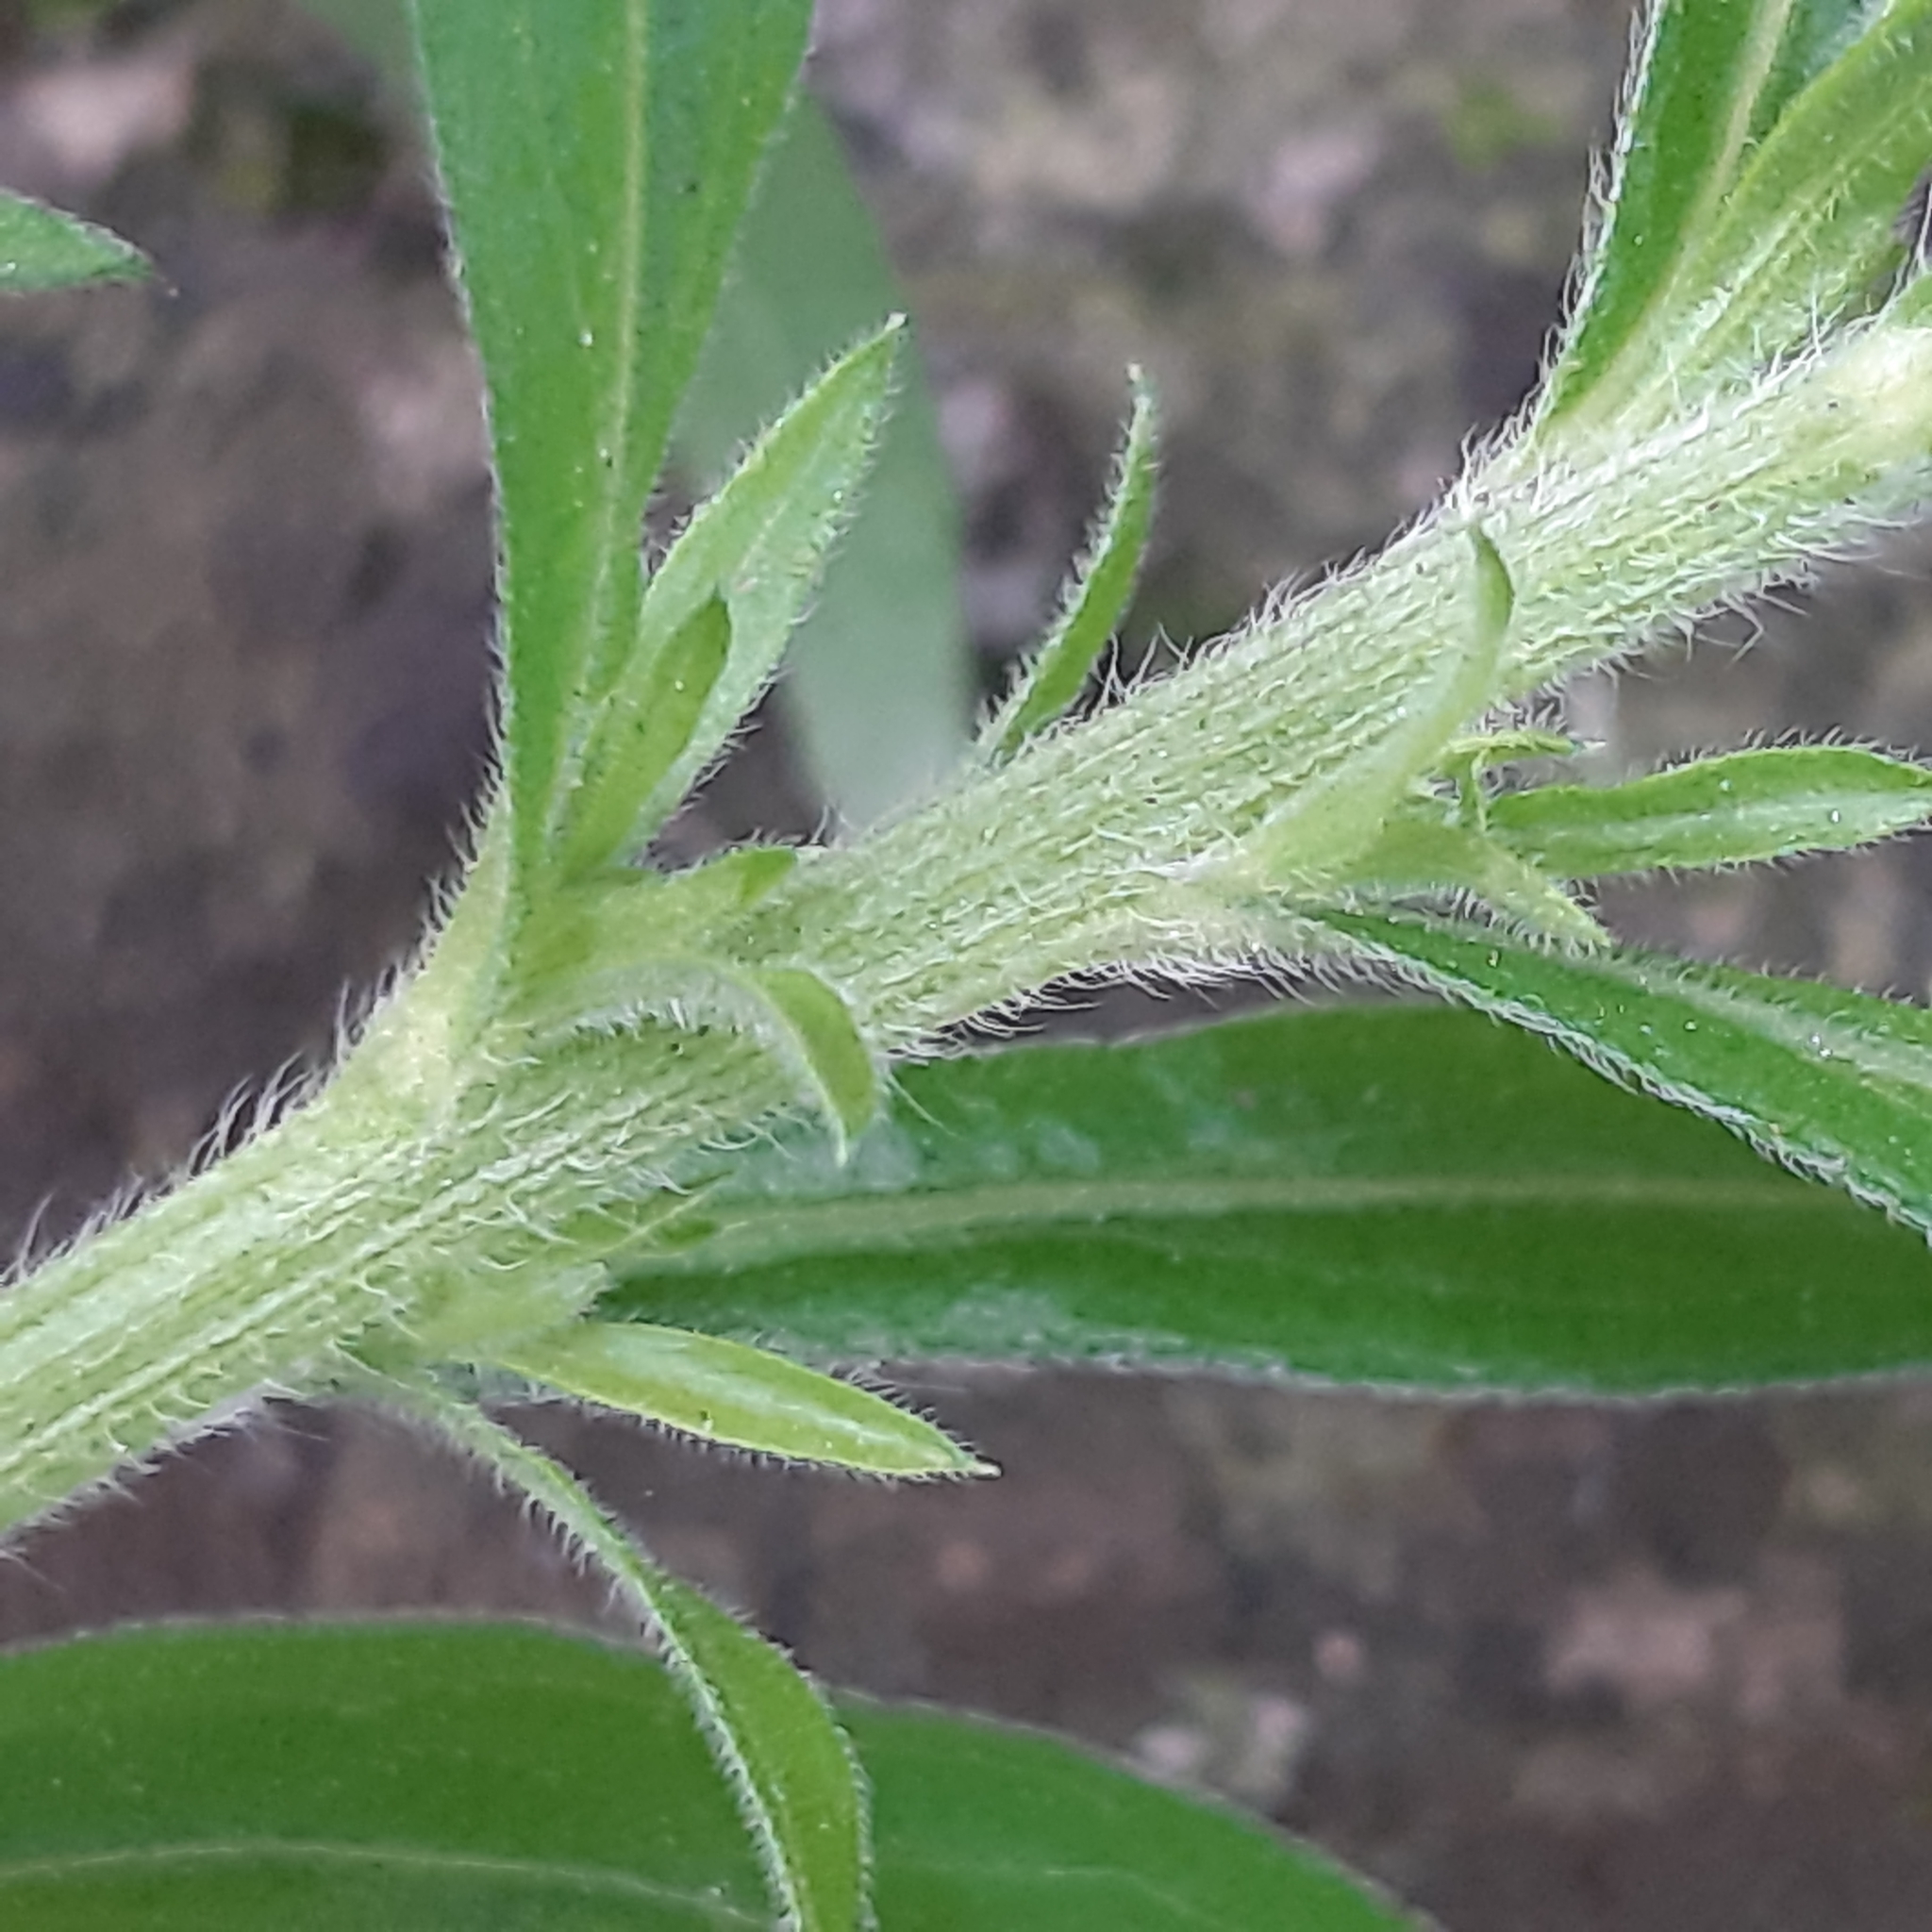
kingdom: Plantae
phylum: Tracheophyta
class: Magnoliopsida
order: Asterales
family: Asteraceae
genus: Erigeron
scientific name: Erigeron sumatrensis
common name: Daisy
